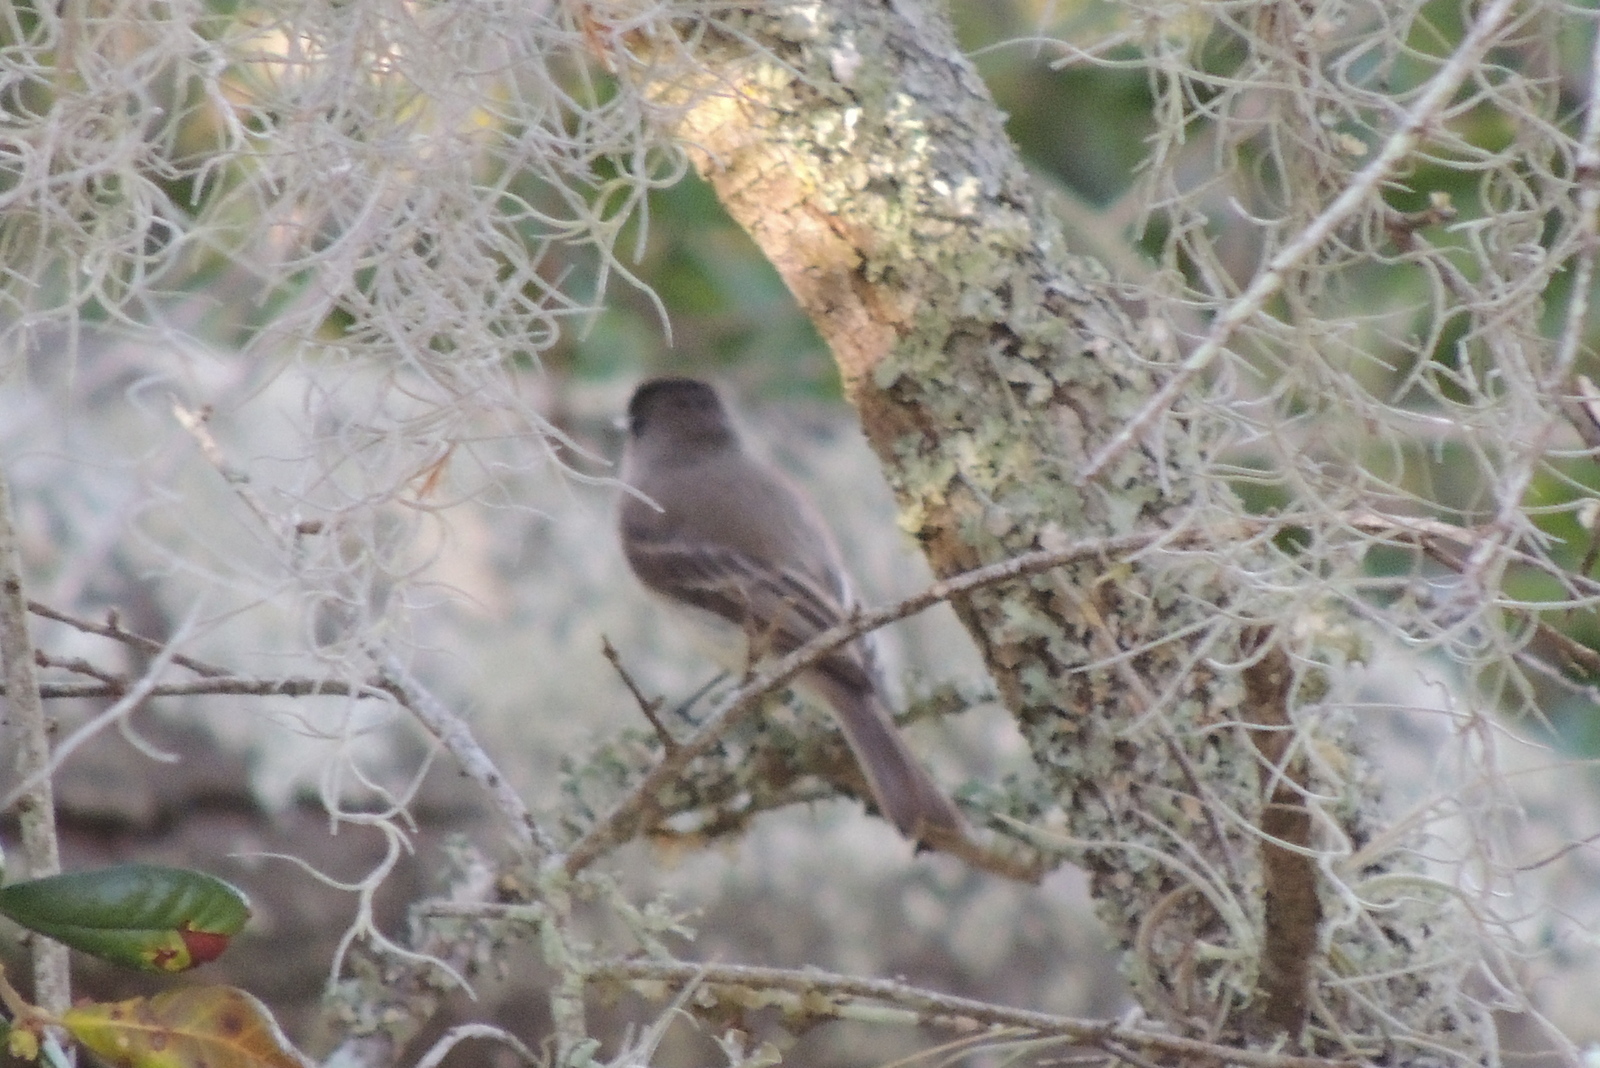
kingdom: Animalia
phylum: Chordata
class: Aves
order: Passeriformes
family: Tyrannidae
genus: Sayornis
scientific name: Sayornis phoebe
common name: Eastern phoebe
